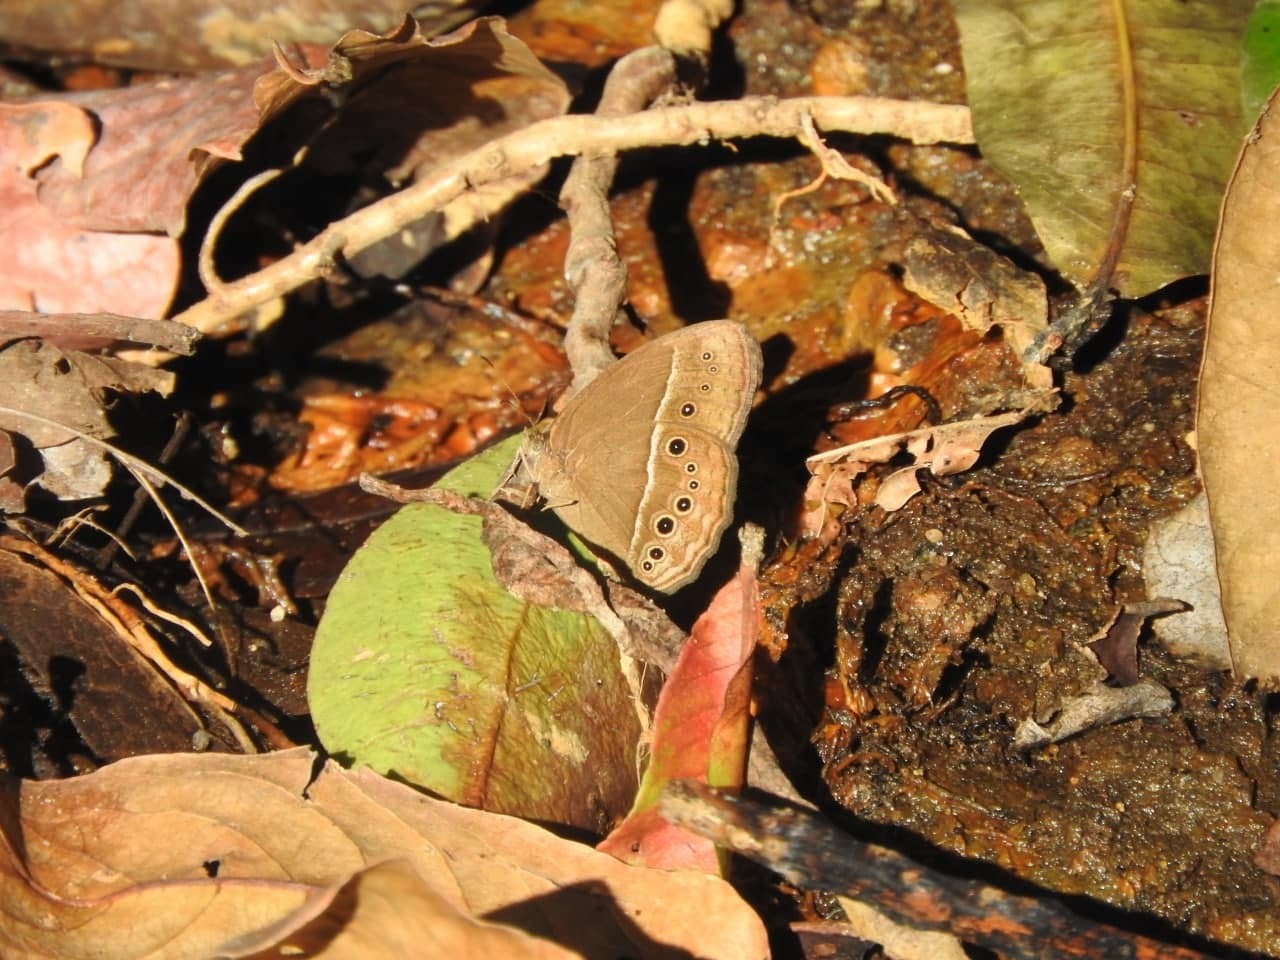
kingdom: Animalia
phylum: Arthropoda
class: Insecta
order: Lepidoptera
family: Nymphalidae
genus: Mycalesis
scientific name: Mycalesis perseus
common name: Dingy bushbrown
